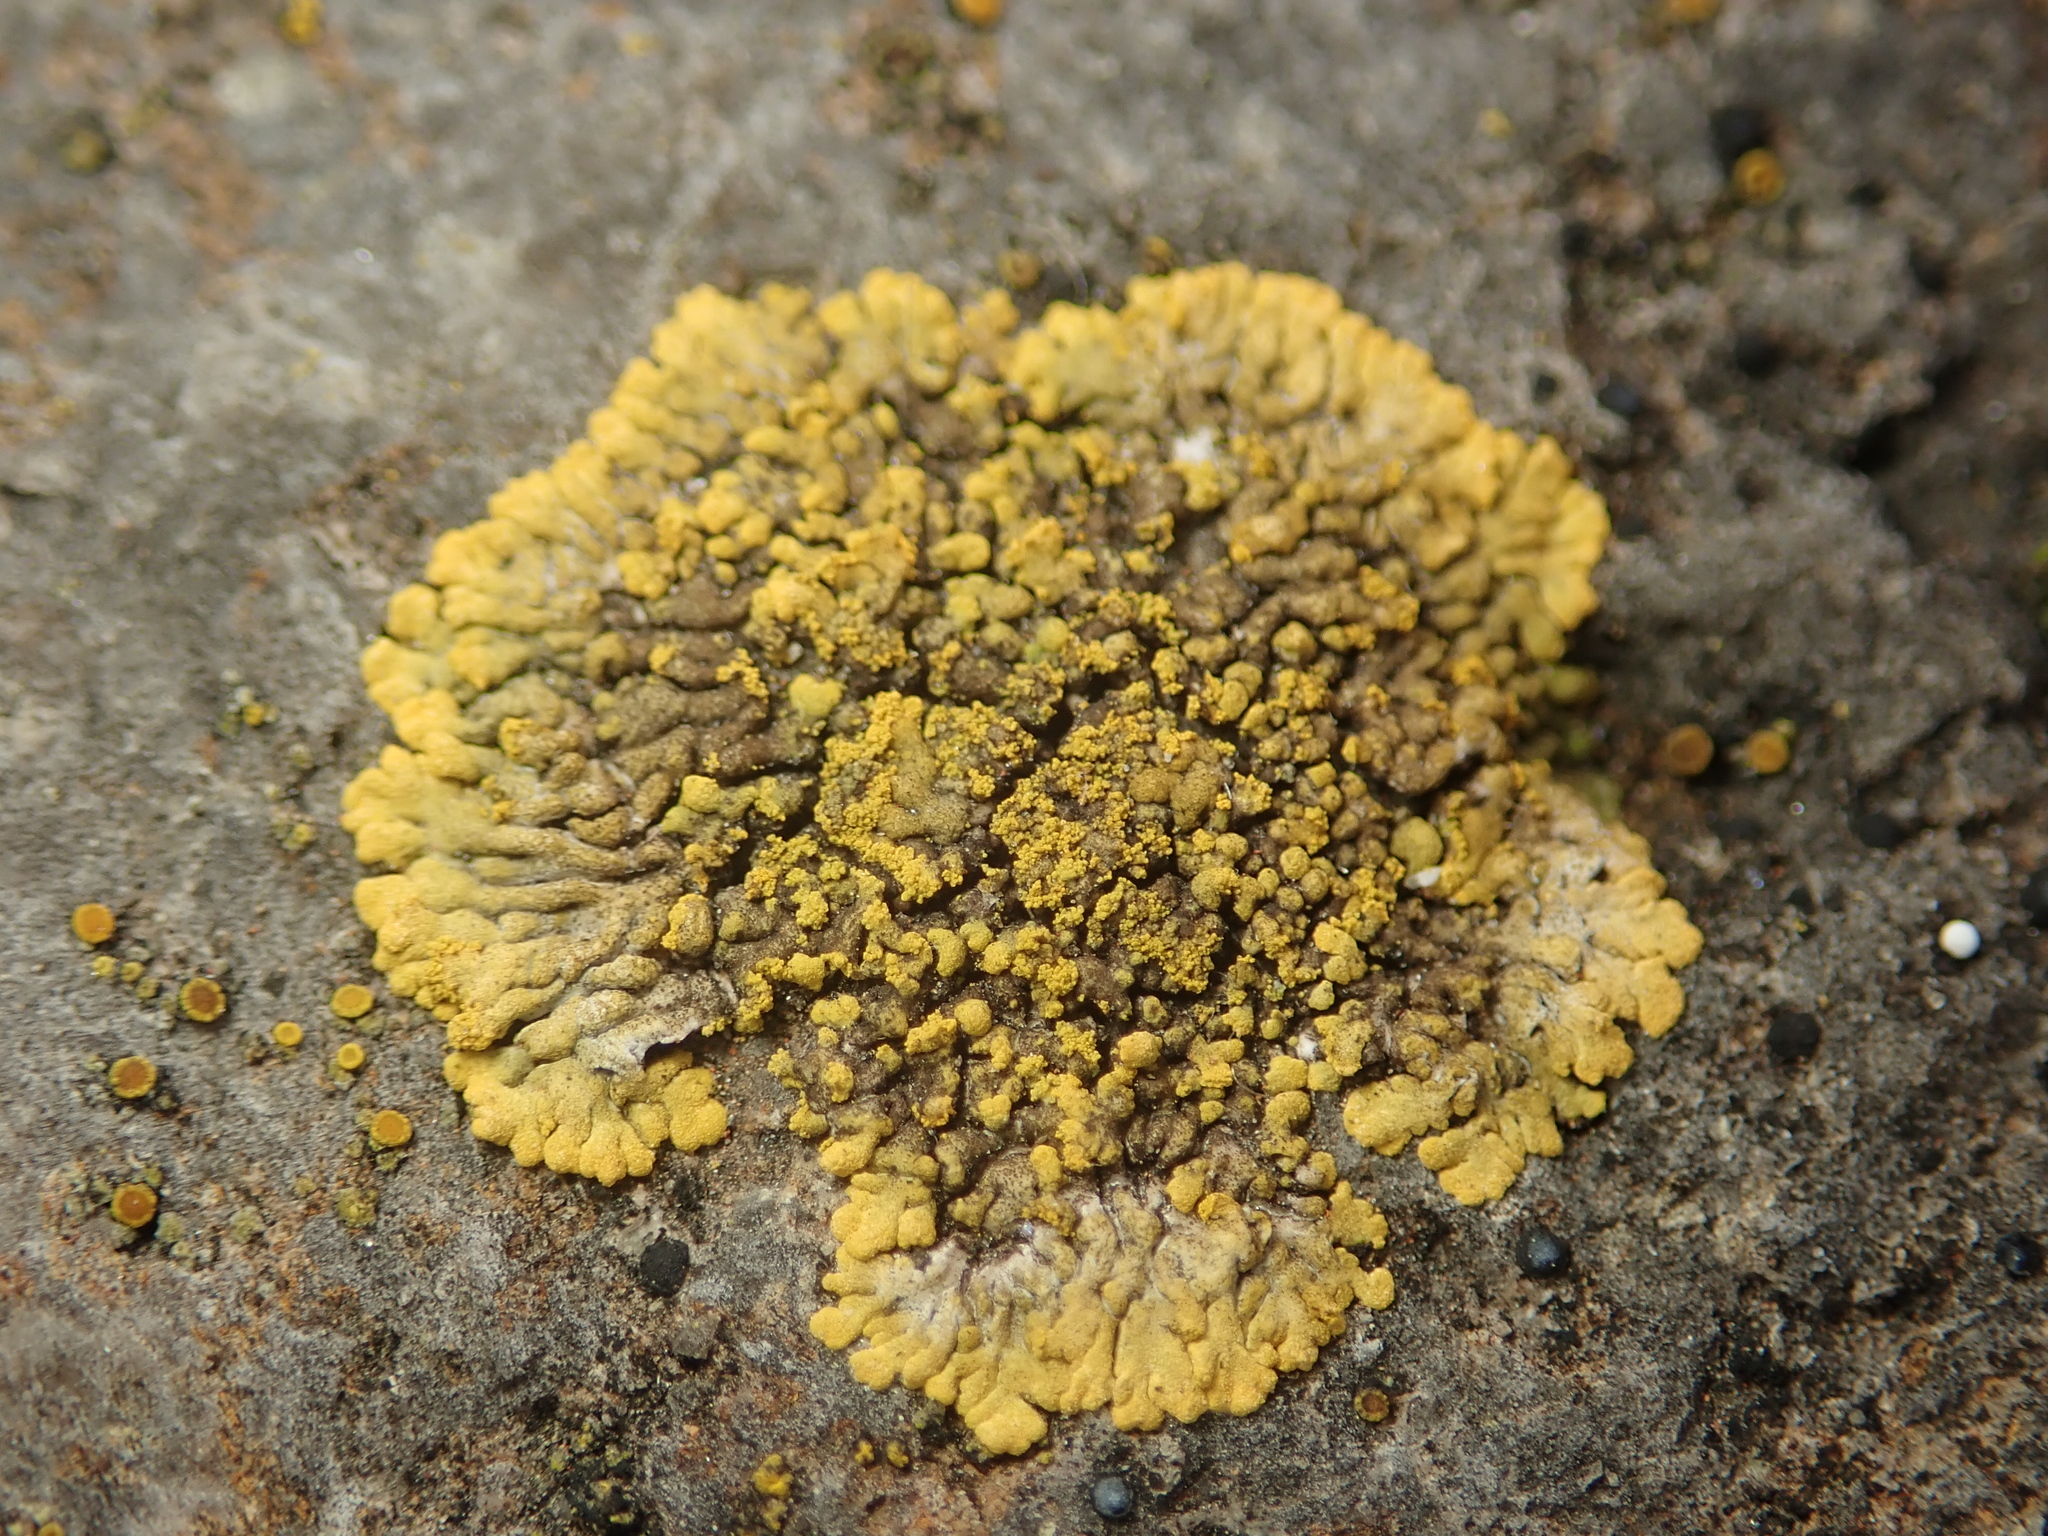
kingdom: Fungi
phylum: Ascomycota
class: Lecanoromycetes
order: Teloschistales
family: Teloschistaceae
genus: Calogaya
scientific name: Calogaya decipiens
